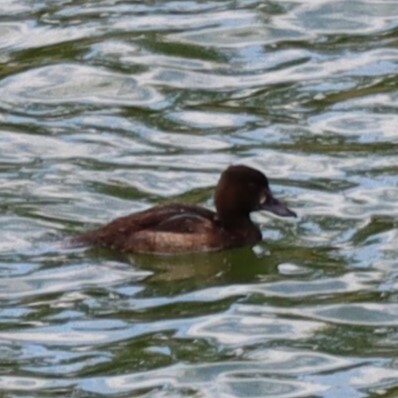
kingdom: Animalia
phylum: Chordata
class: Aves
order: Anseriformes
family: Anatidae
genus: Aythya
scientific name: Aythya fuligula
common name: Tufted duck
